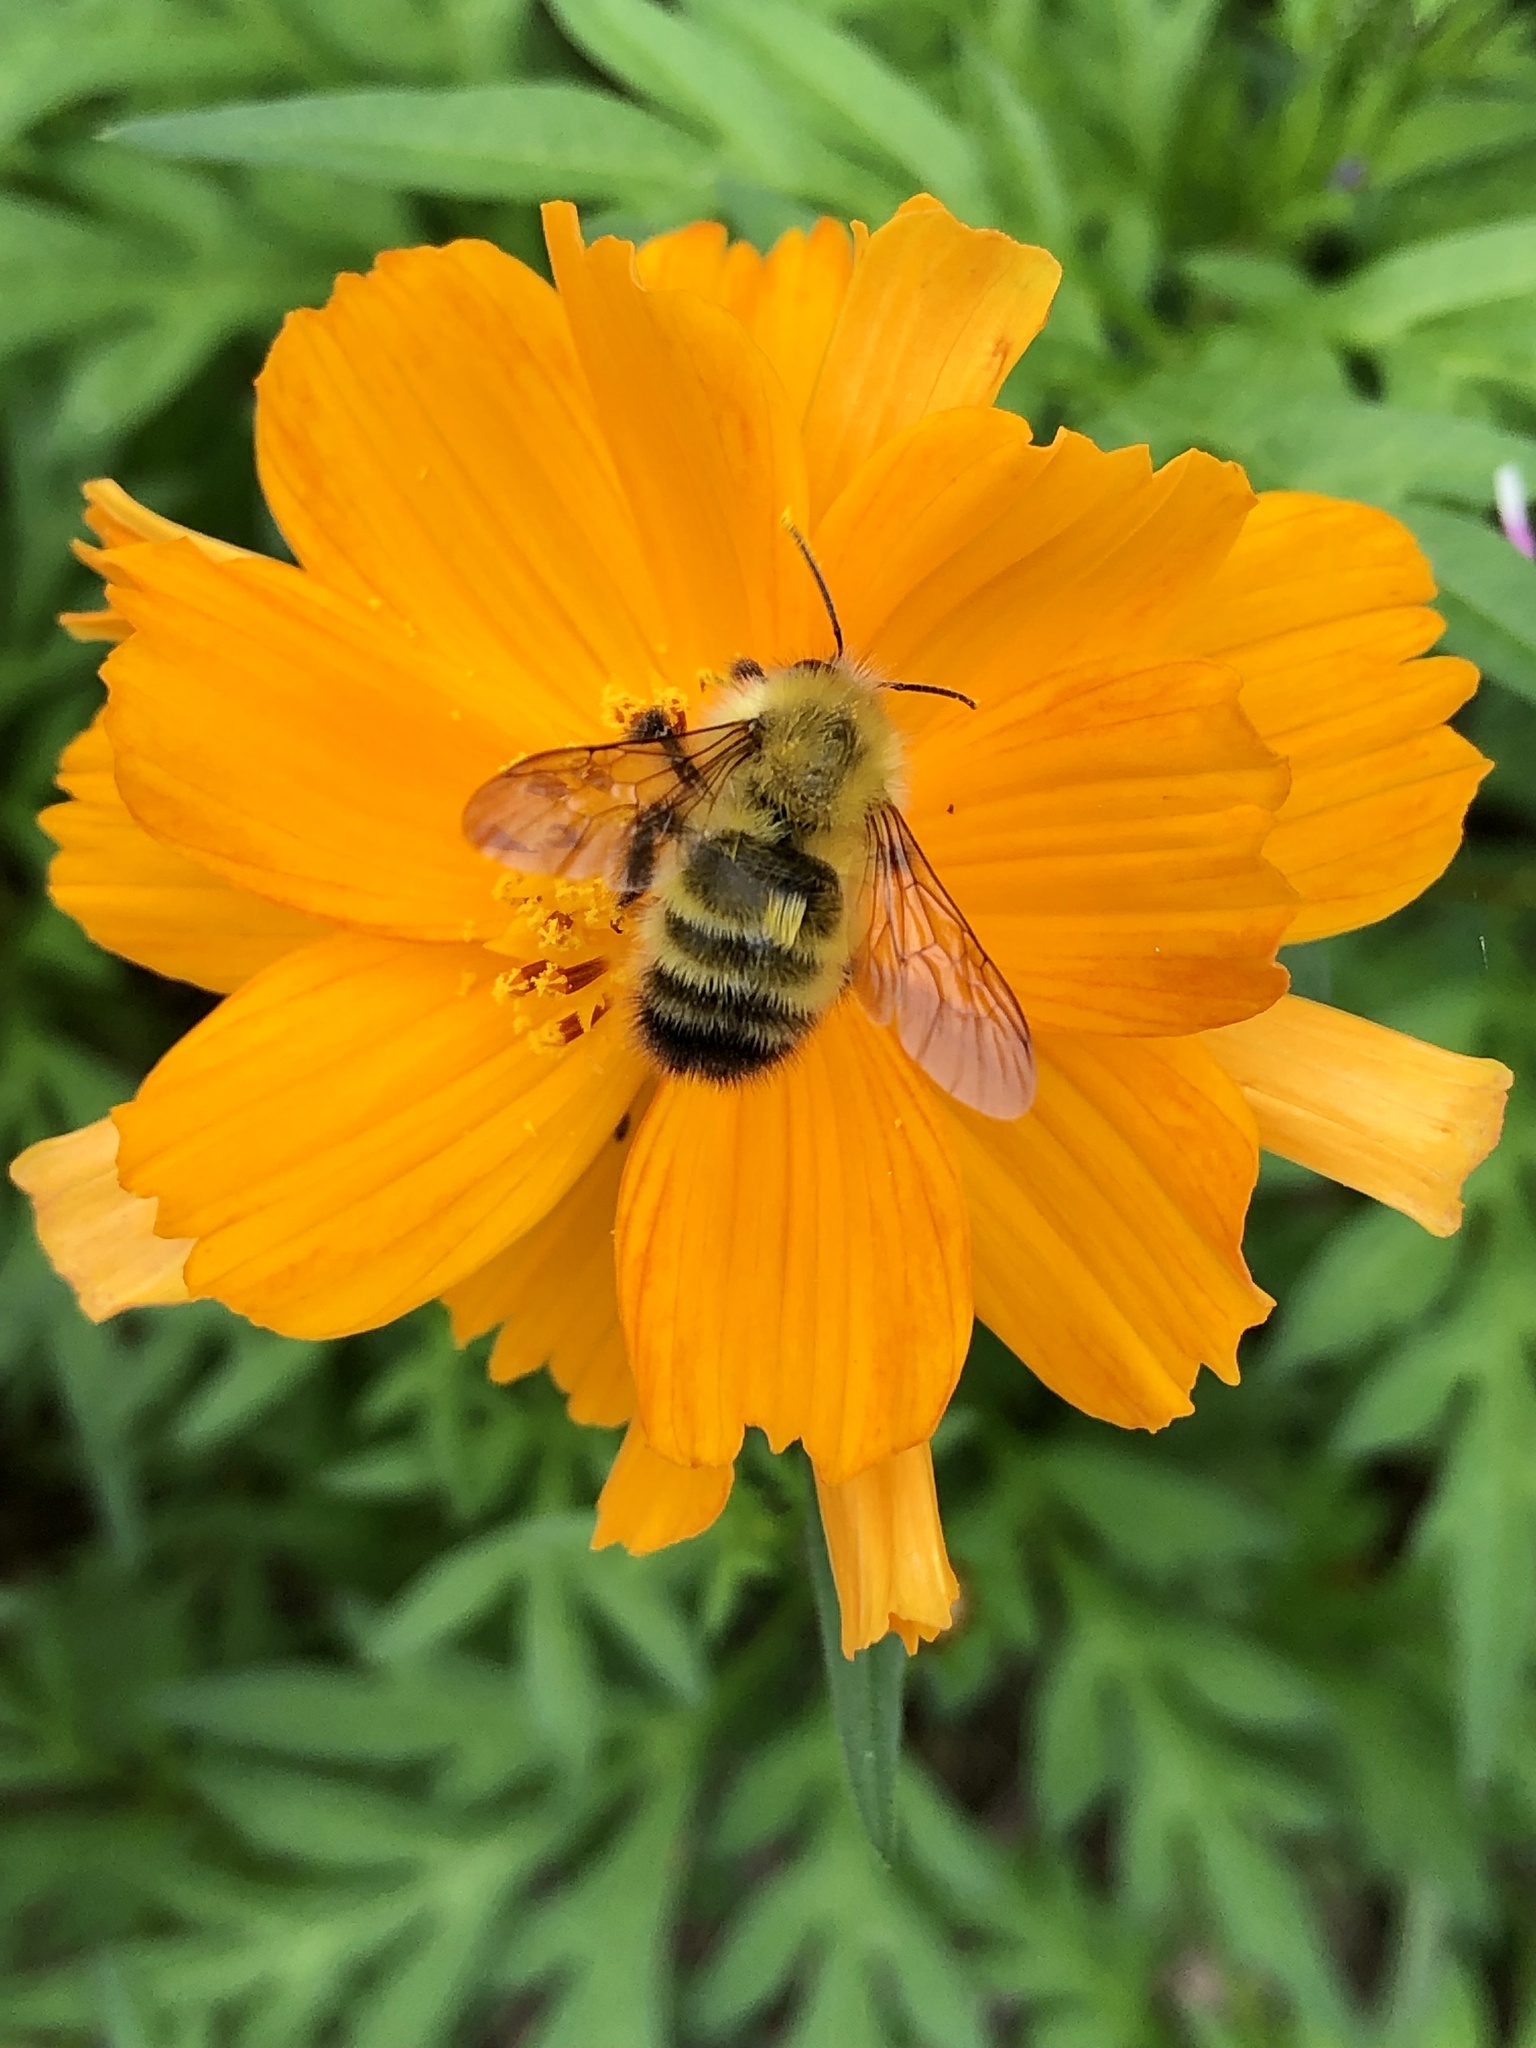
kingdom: Animalia
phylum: Arthropoda
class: Insecta
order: Hymenoptera
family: Apidae
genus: Bombus
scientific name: Bombus perplexus
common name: Confusing bumble bee
